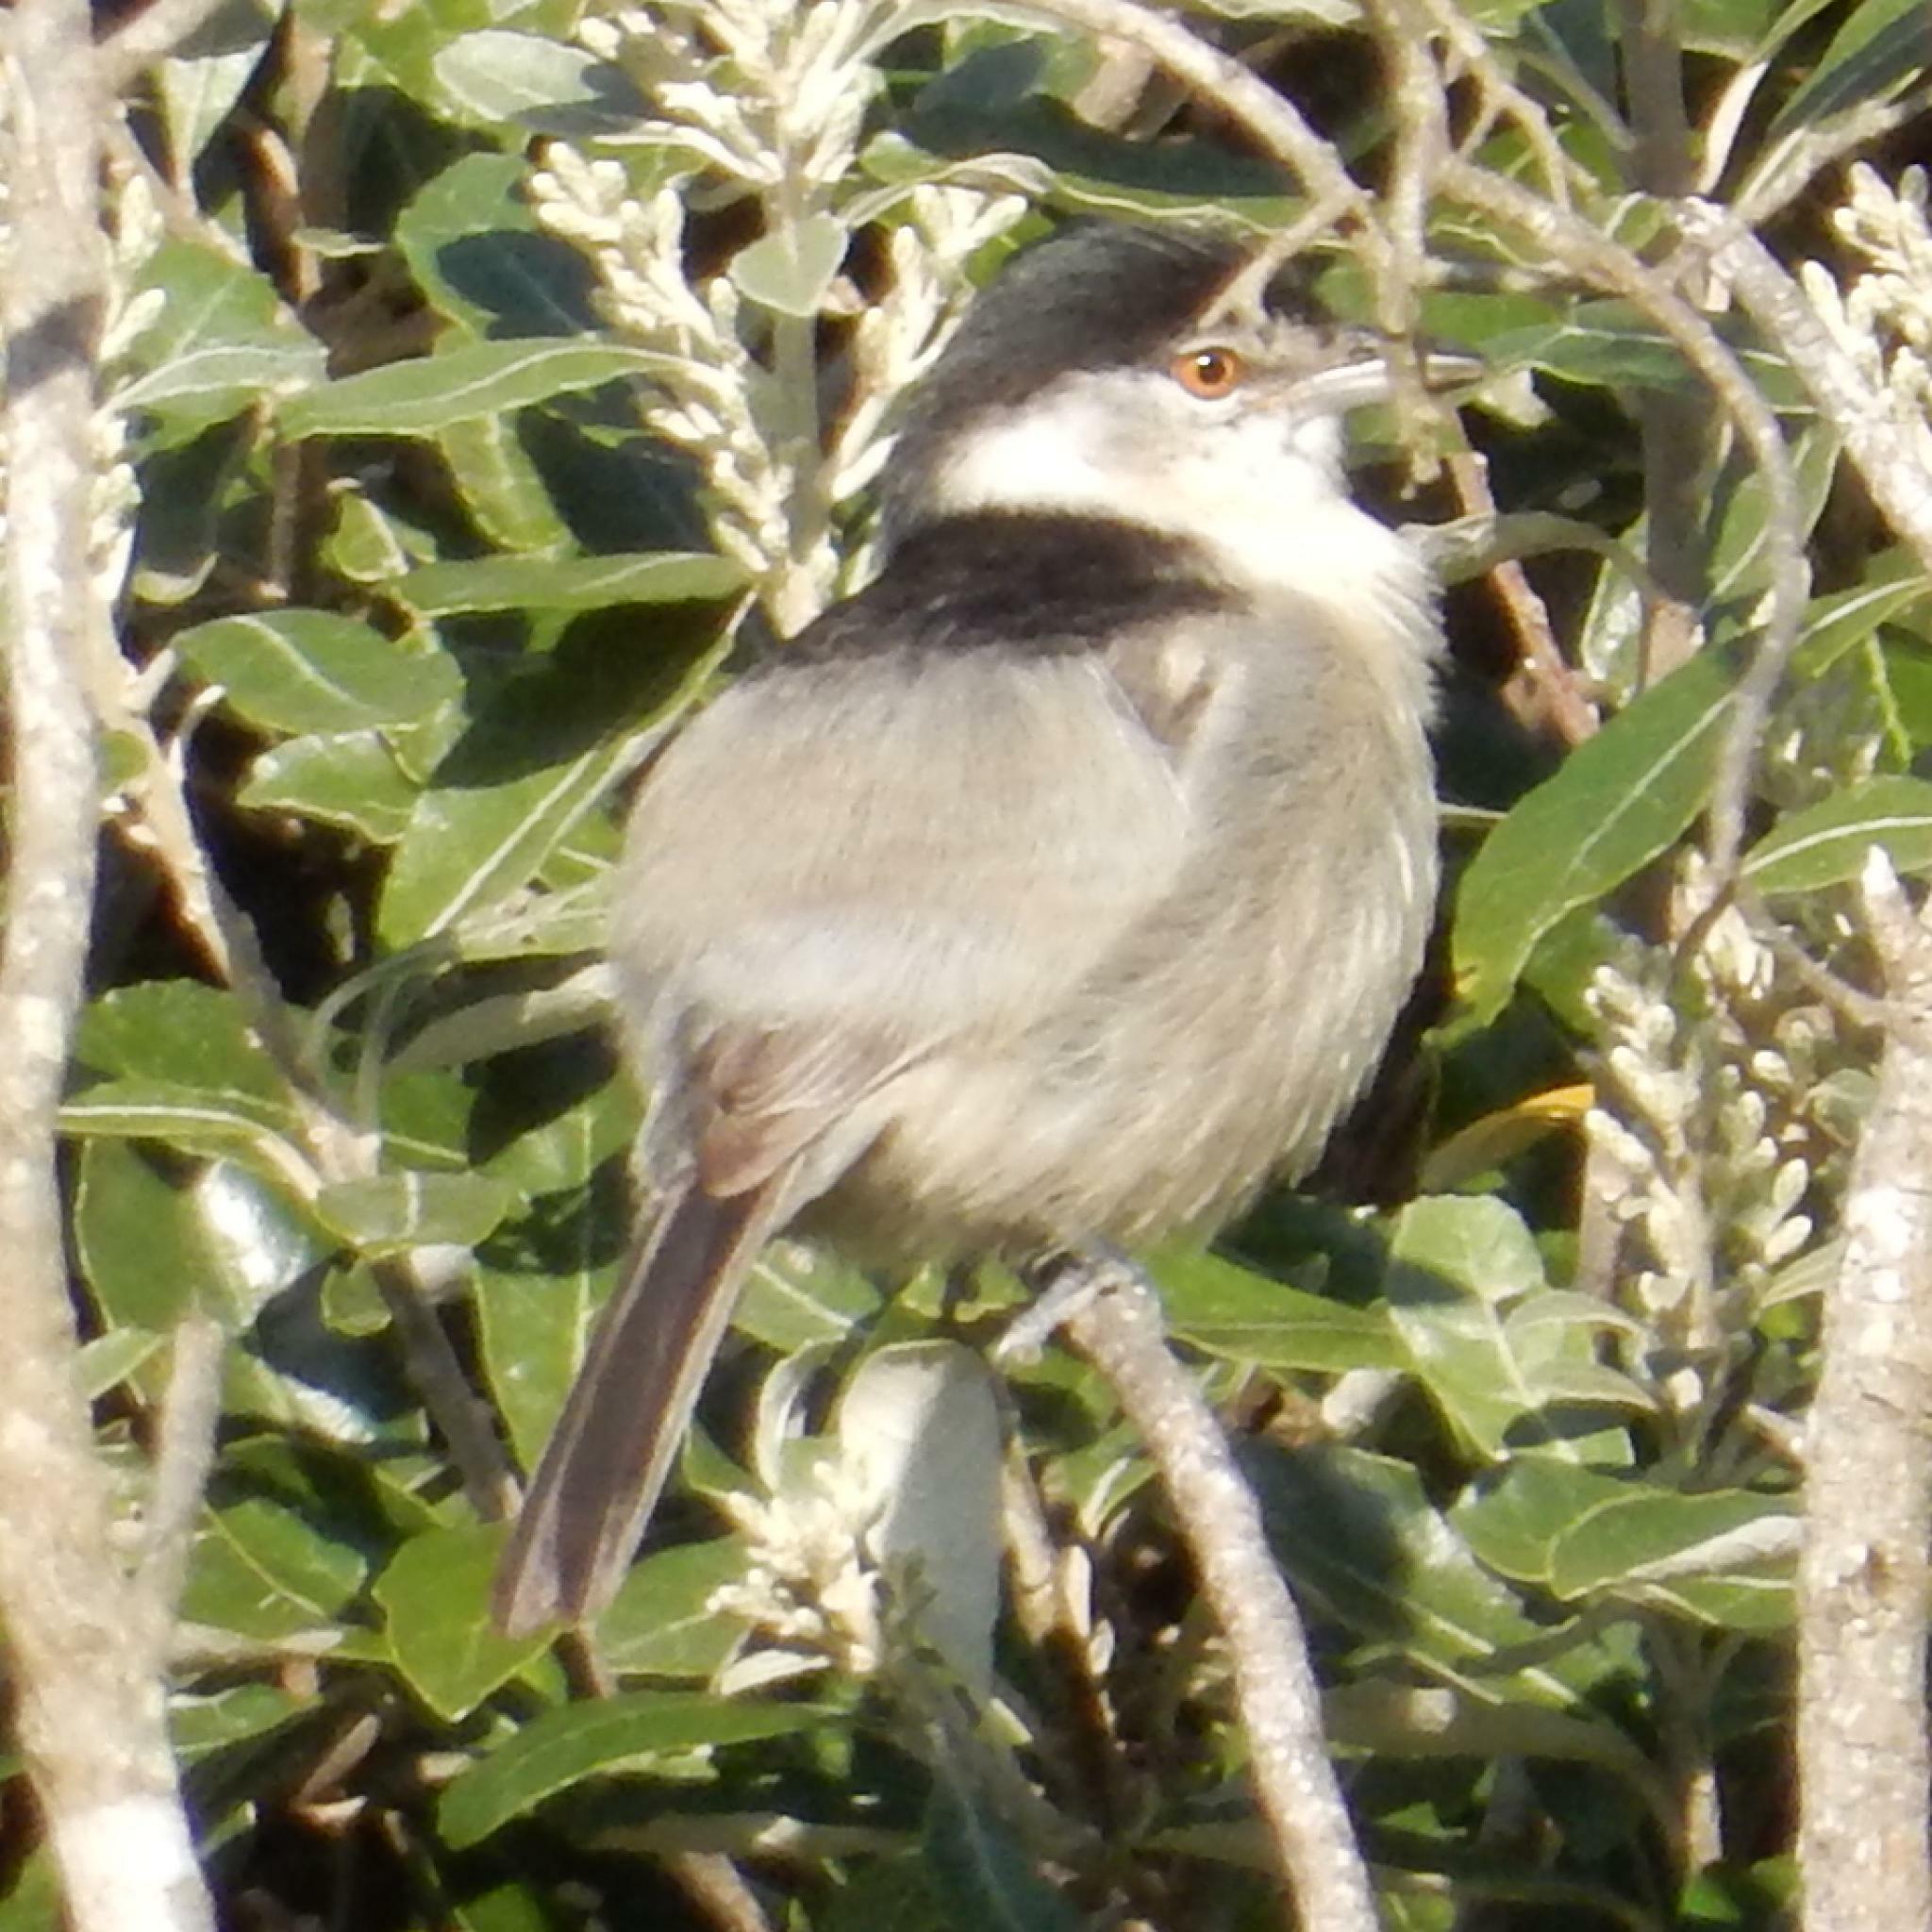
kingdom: Animalia
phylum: Chordata
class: Aves
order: Passeriformes
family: Malaconotidae
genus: Dryoscopus
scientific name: Dryoscopus cubla
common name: Black-backed puffback
